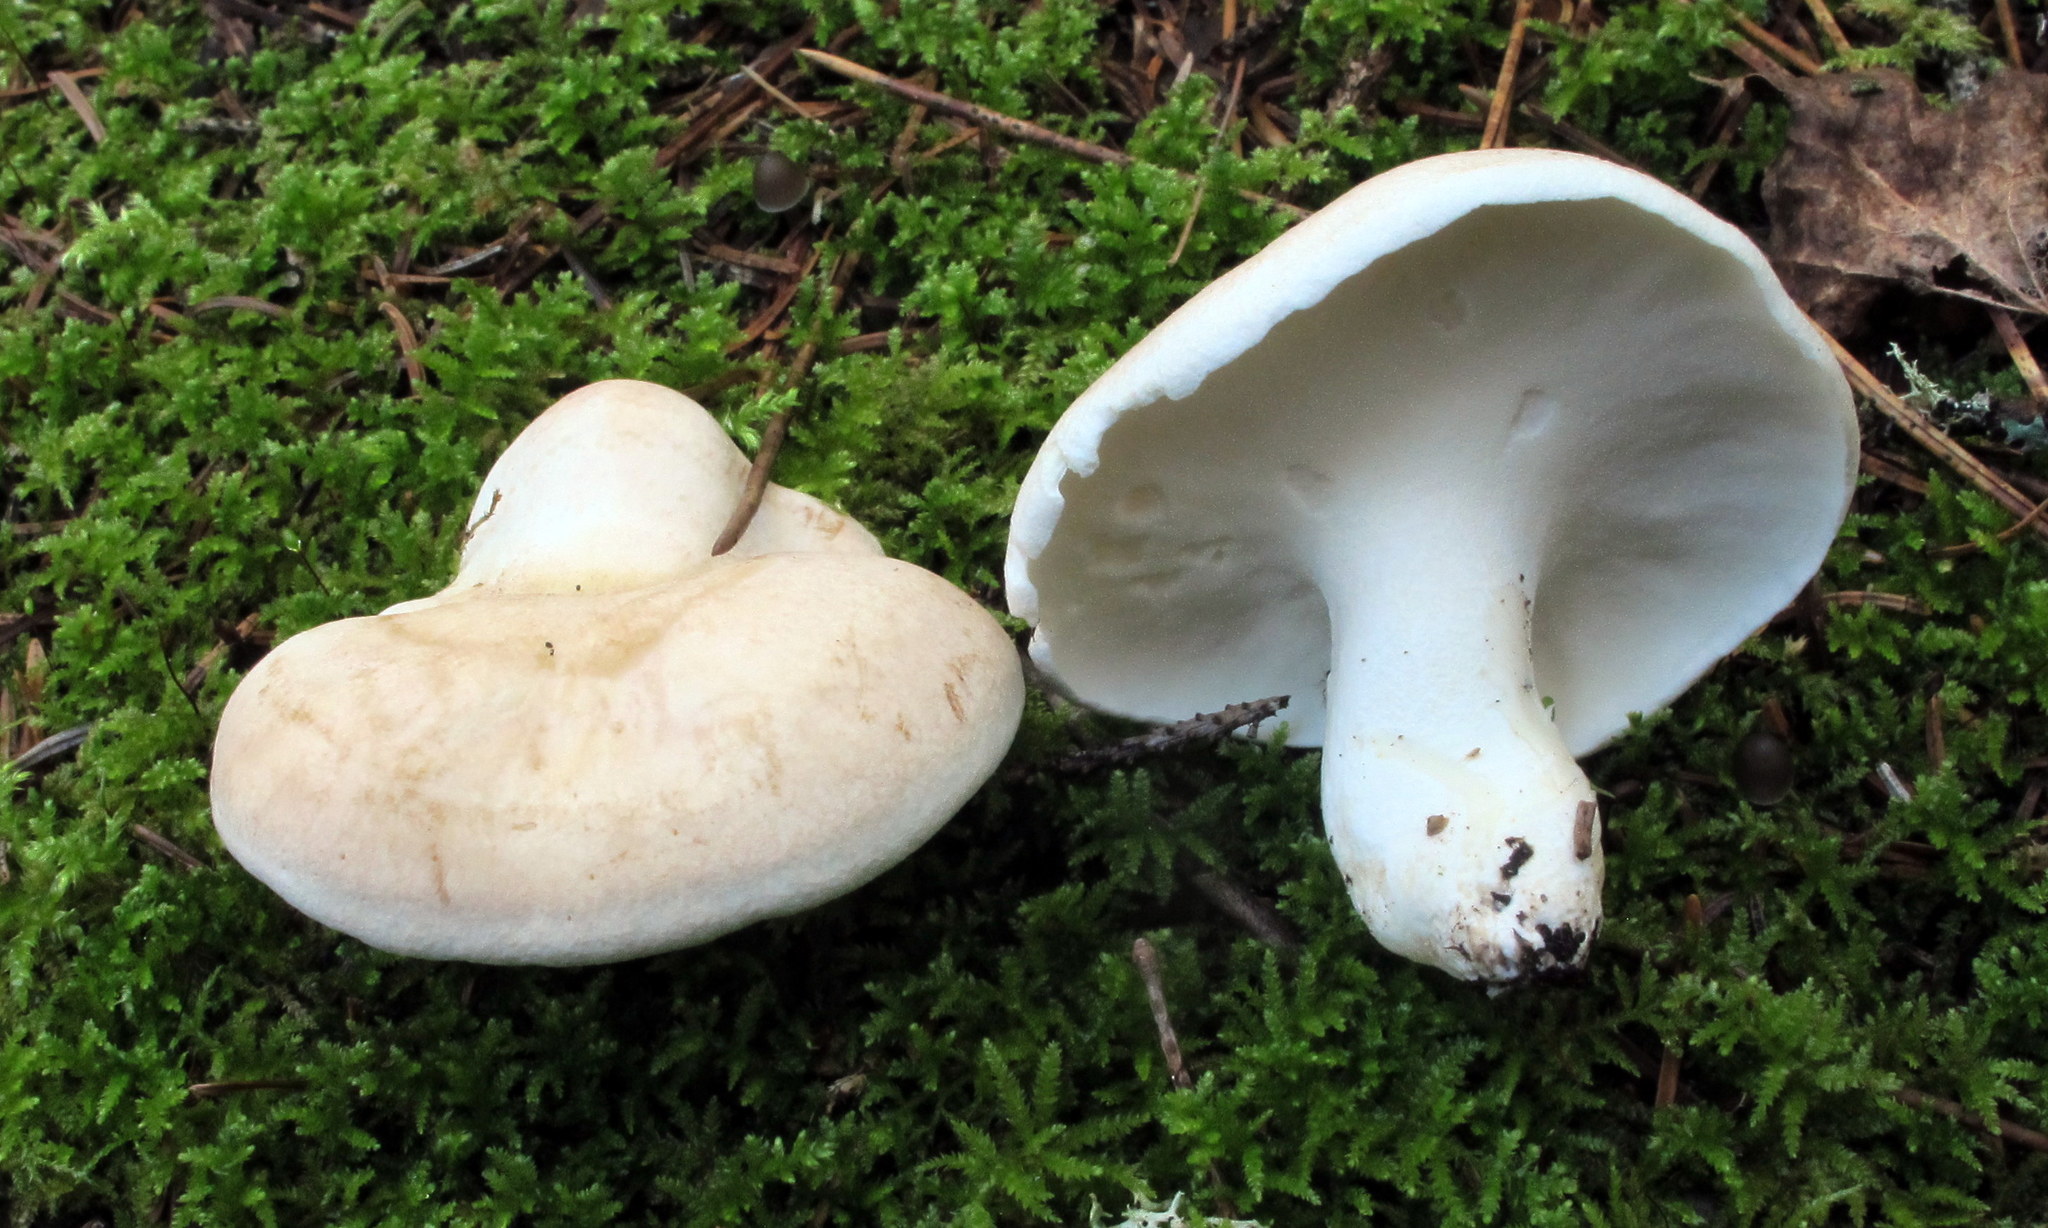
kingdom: Fungi
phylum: Basidiomycota
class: Agaricomycetes
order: Russulales
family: Albatrellaceae
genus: Albatrellus
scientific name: Albatrellus ovinus
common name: Forest lamb
